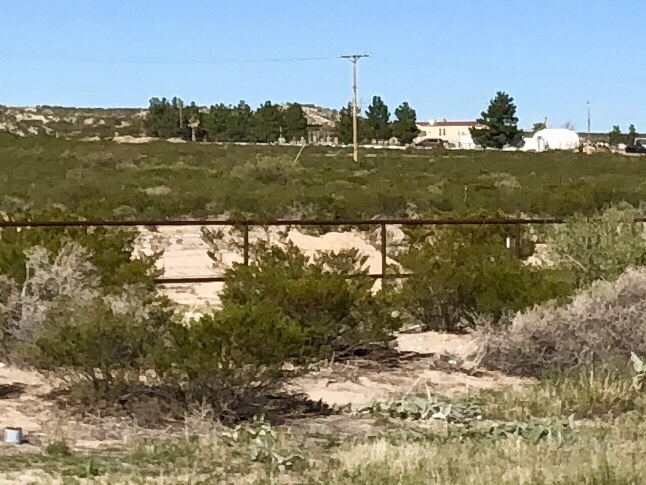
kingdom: Plantae
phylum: Tracheophyta
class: Magnoliopsida
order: Zygophyllales
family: Zygophyllaceae
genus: Larrea
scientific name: Larrea tridentata
